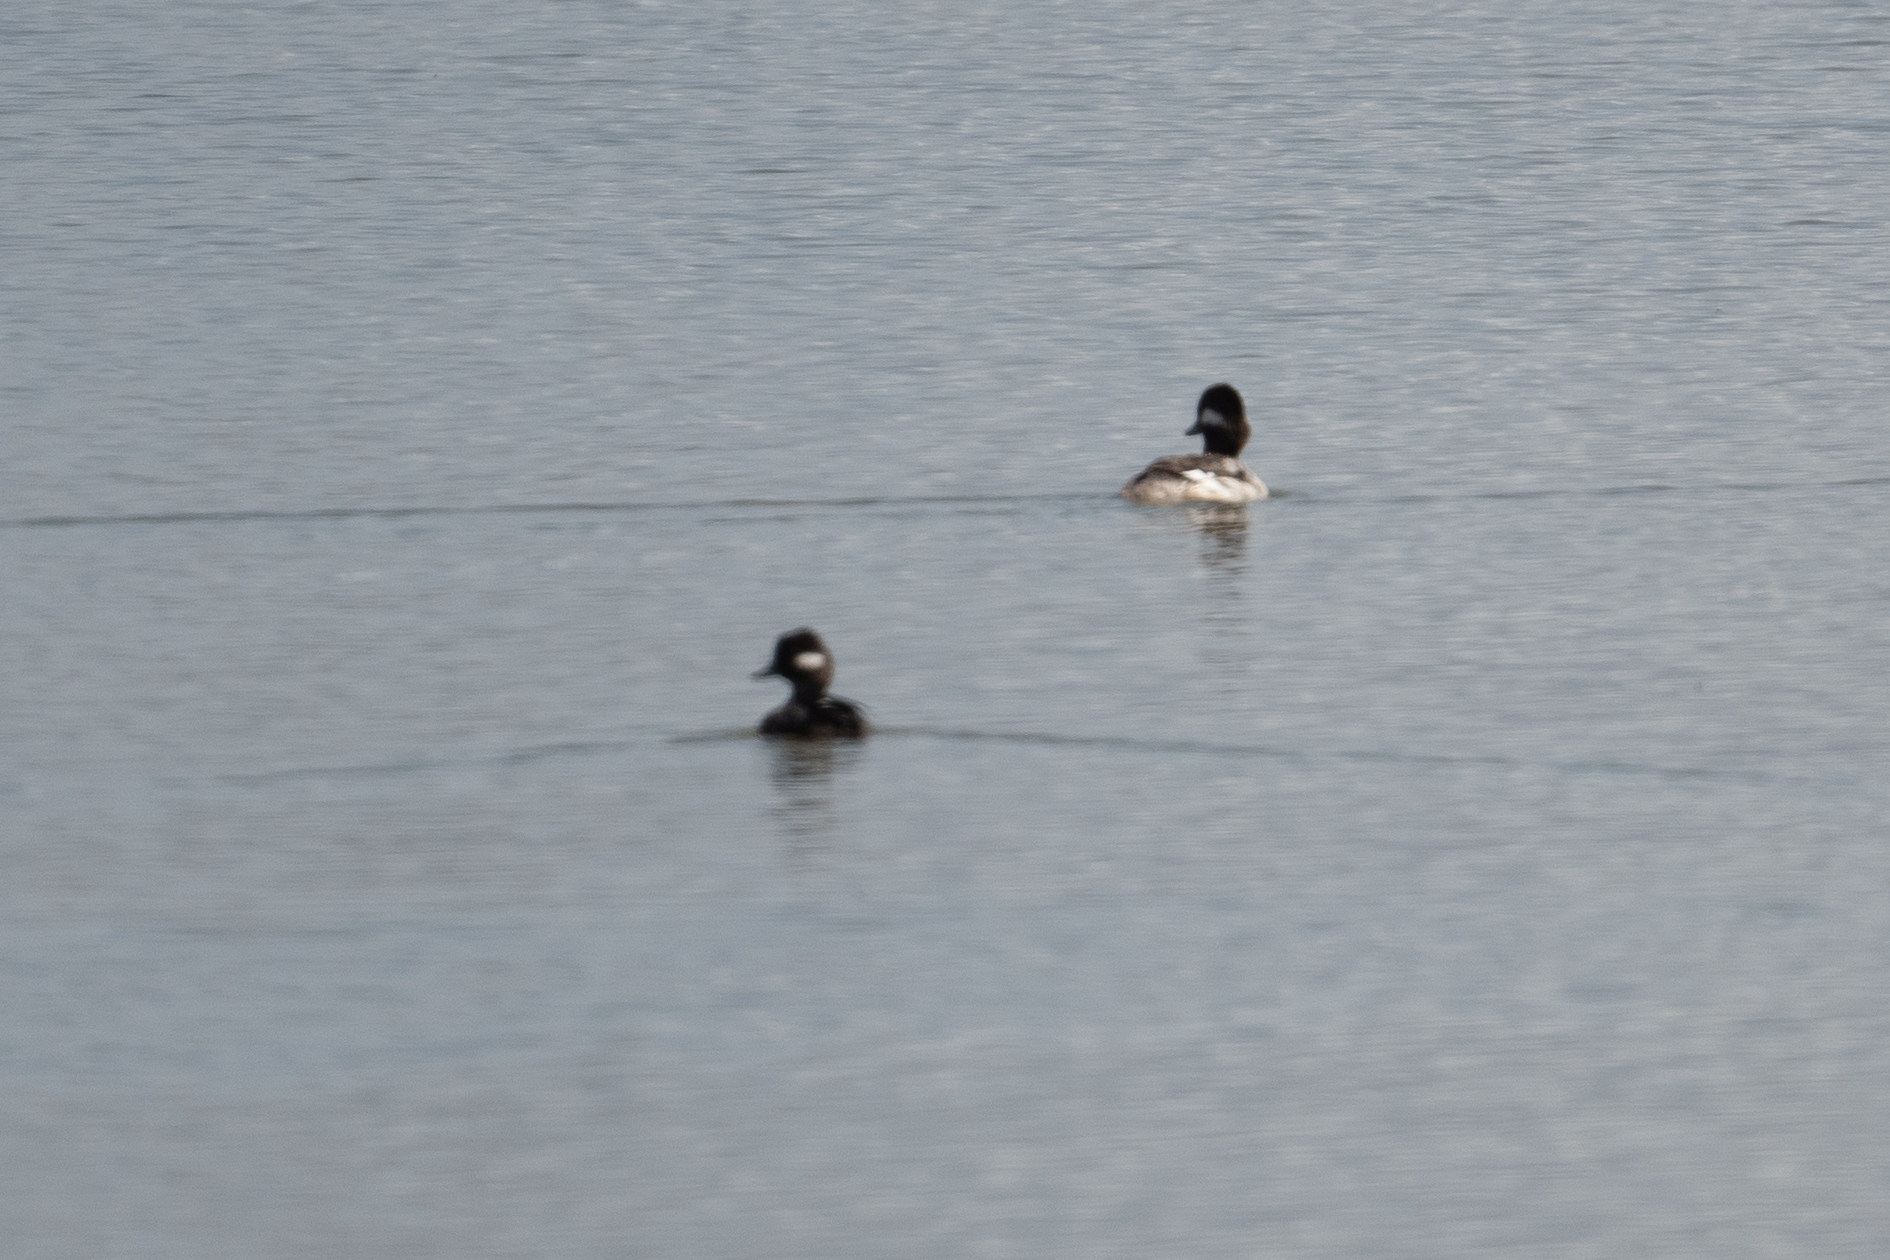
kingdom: Animalia
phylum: Chordata
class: Aves
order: Anseriformes
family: Anatidae
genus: Bucephala
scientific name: Bucephala albeola
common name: Bufflehead
